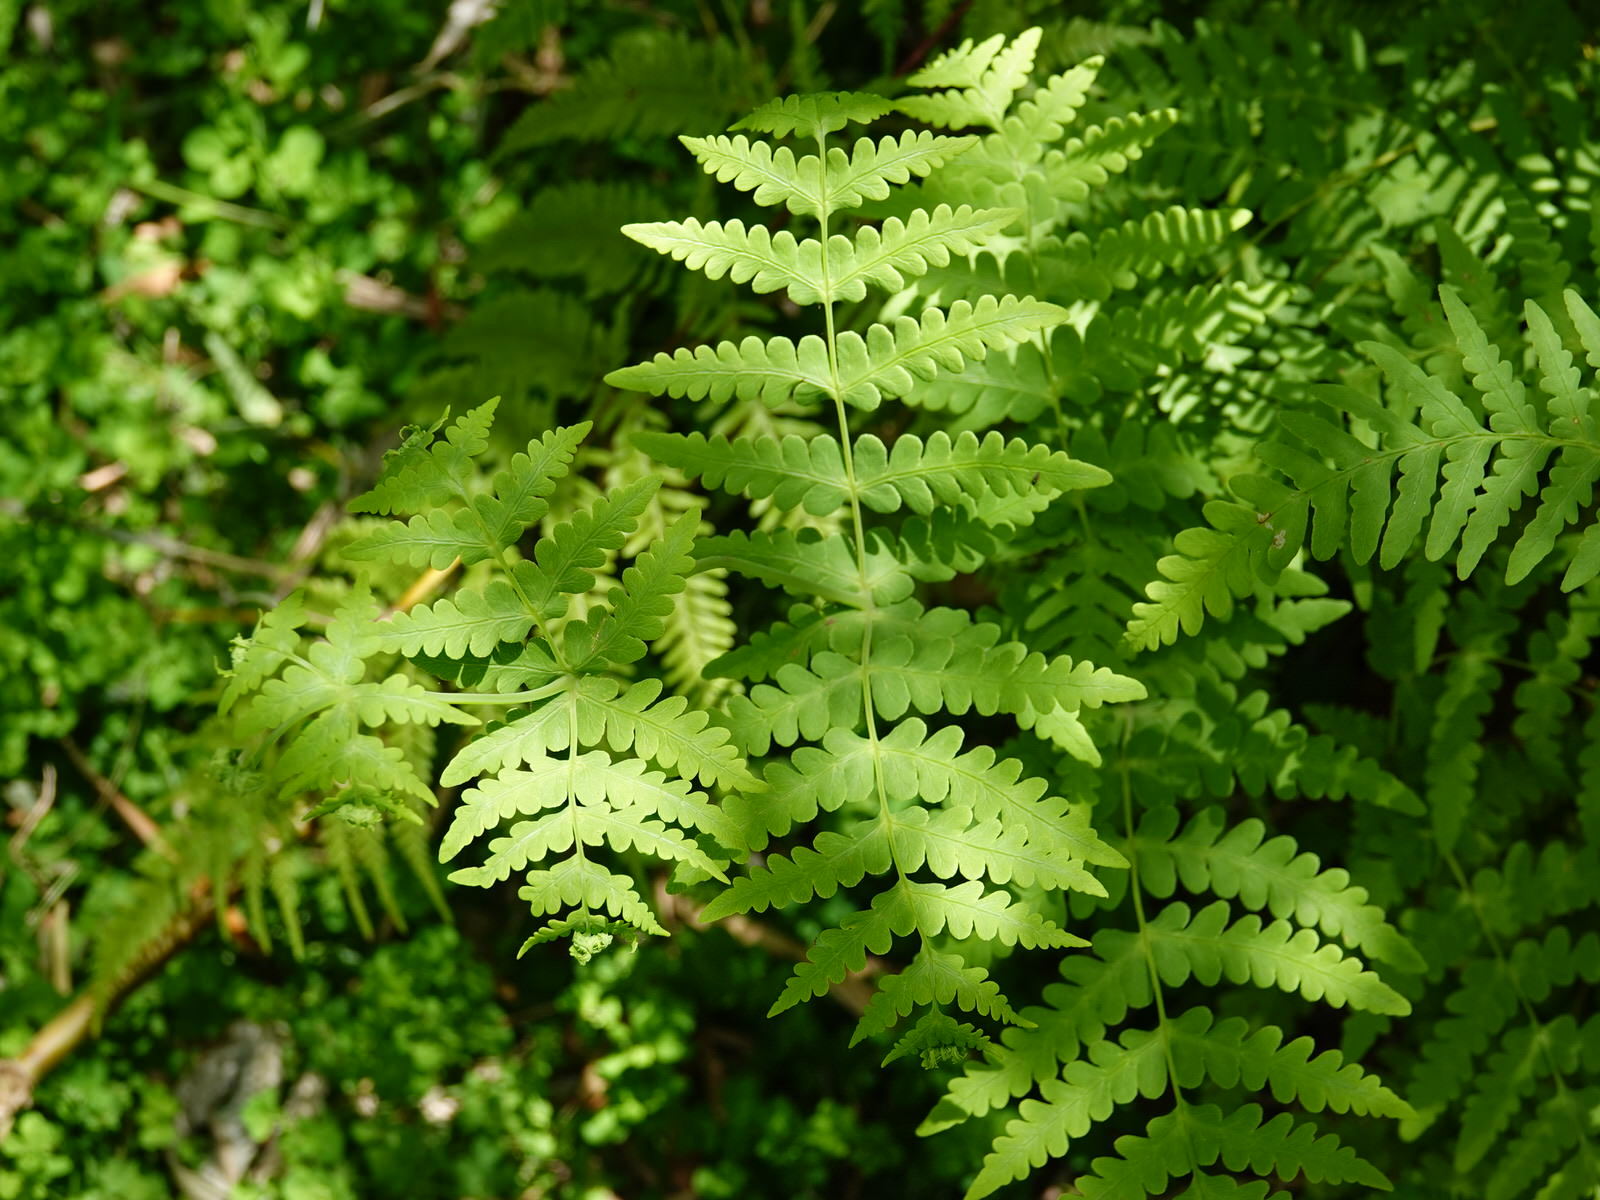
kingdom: Plantae
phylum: Tracheophyta
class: Polypodiopsida
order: Polypodiales
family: Dennstaedtiaceae
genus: Histiopteris
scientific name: Histiopteris incisa
